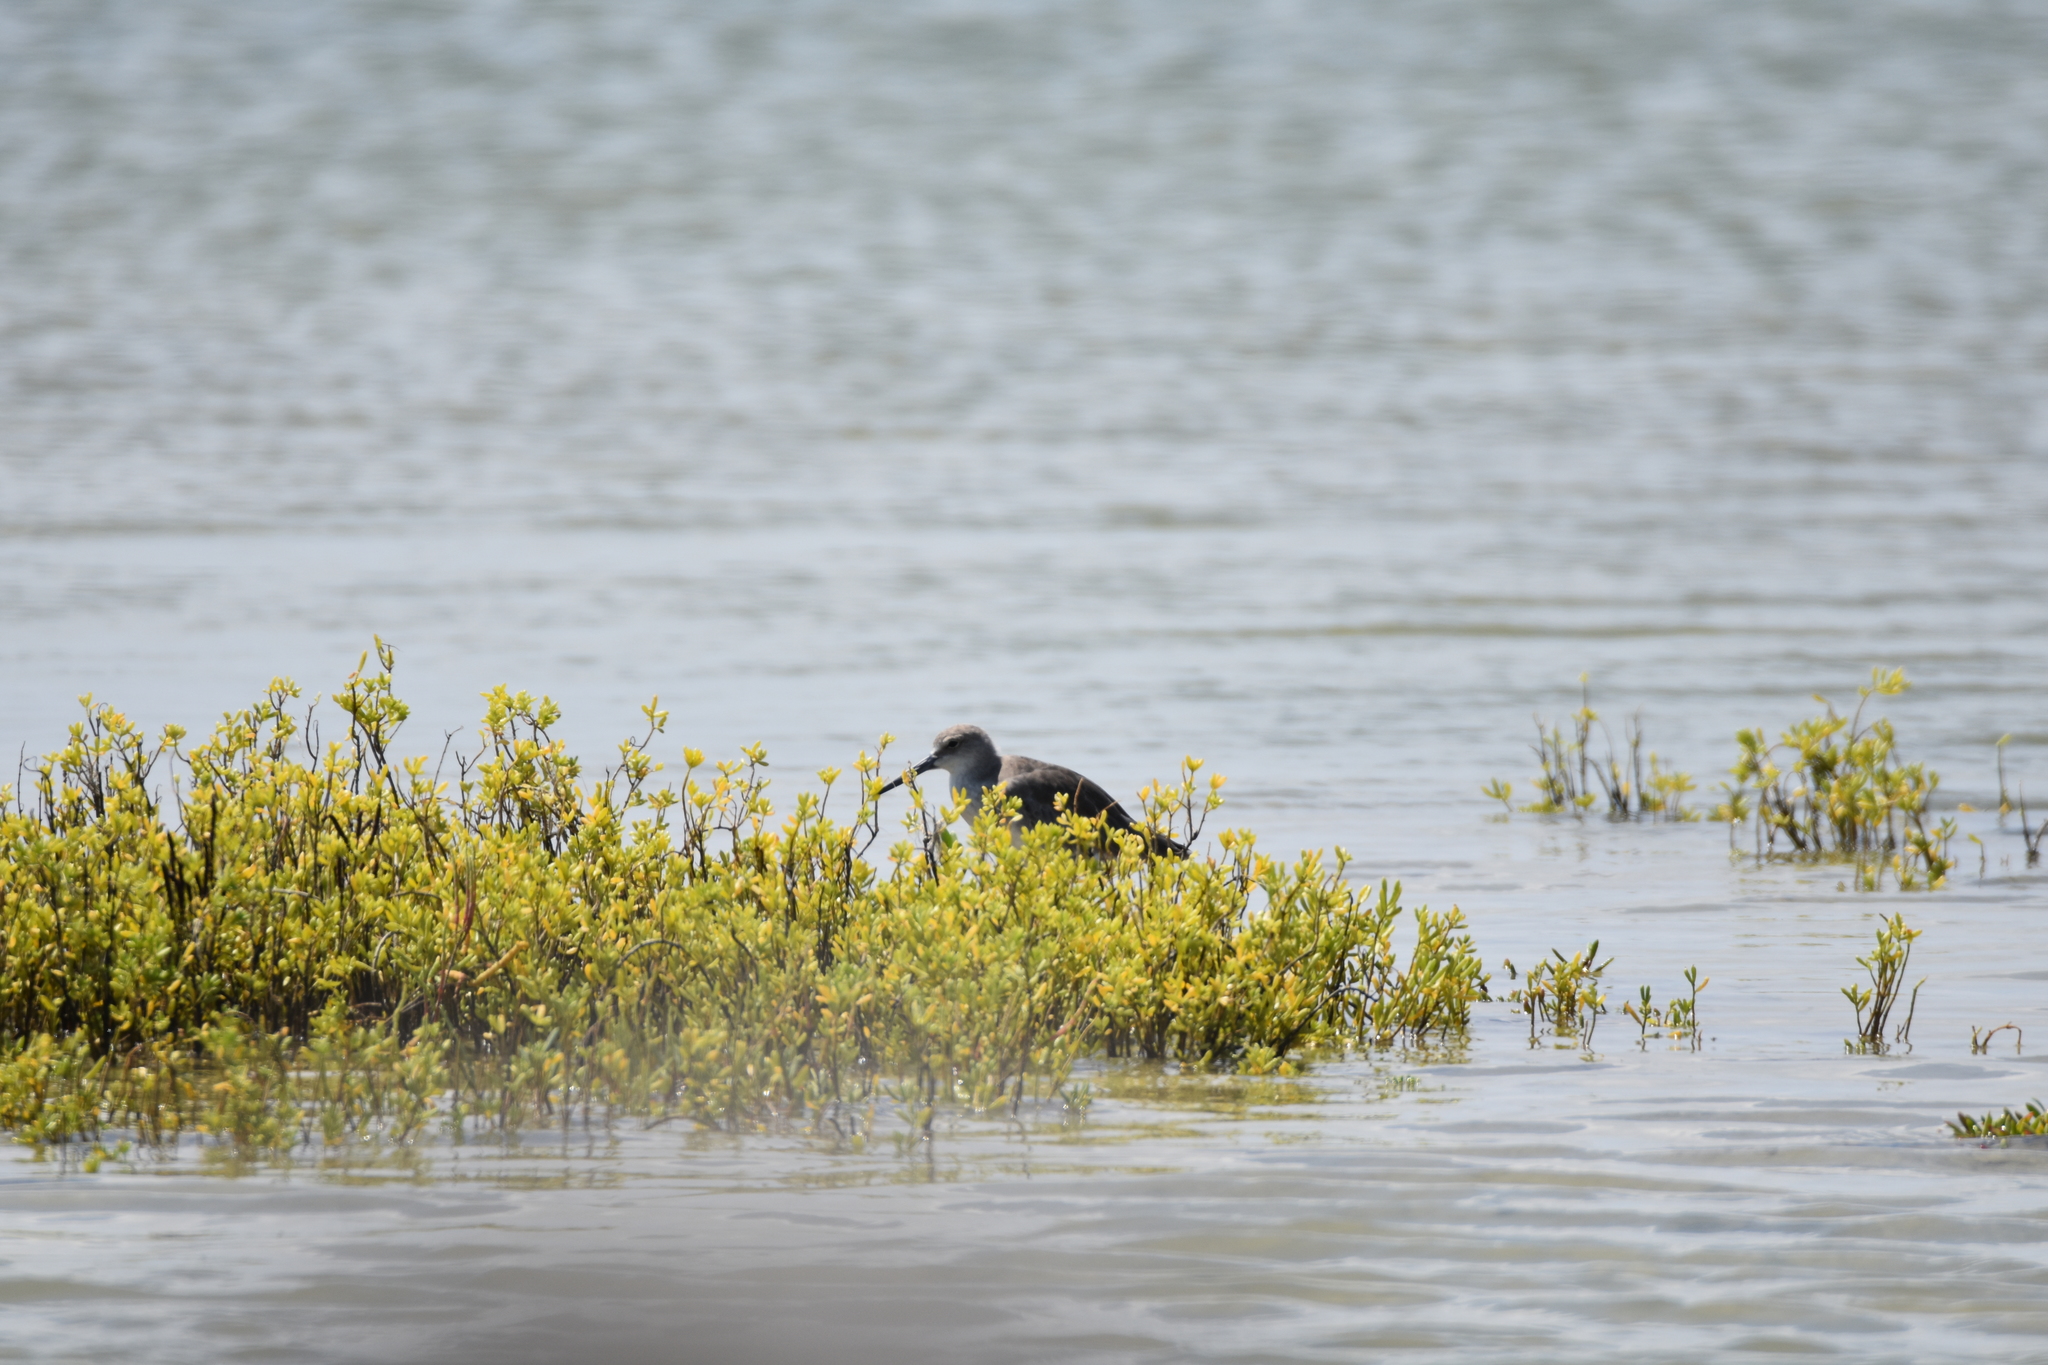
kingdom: Animalia
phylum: Chordata
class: Aves
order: Charadriiformes
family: Scolopacidae
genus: Tringa
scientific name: Tringa semipalmata
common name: Willet
